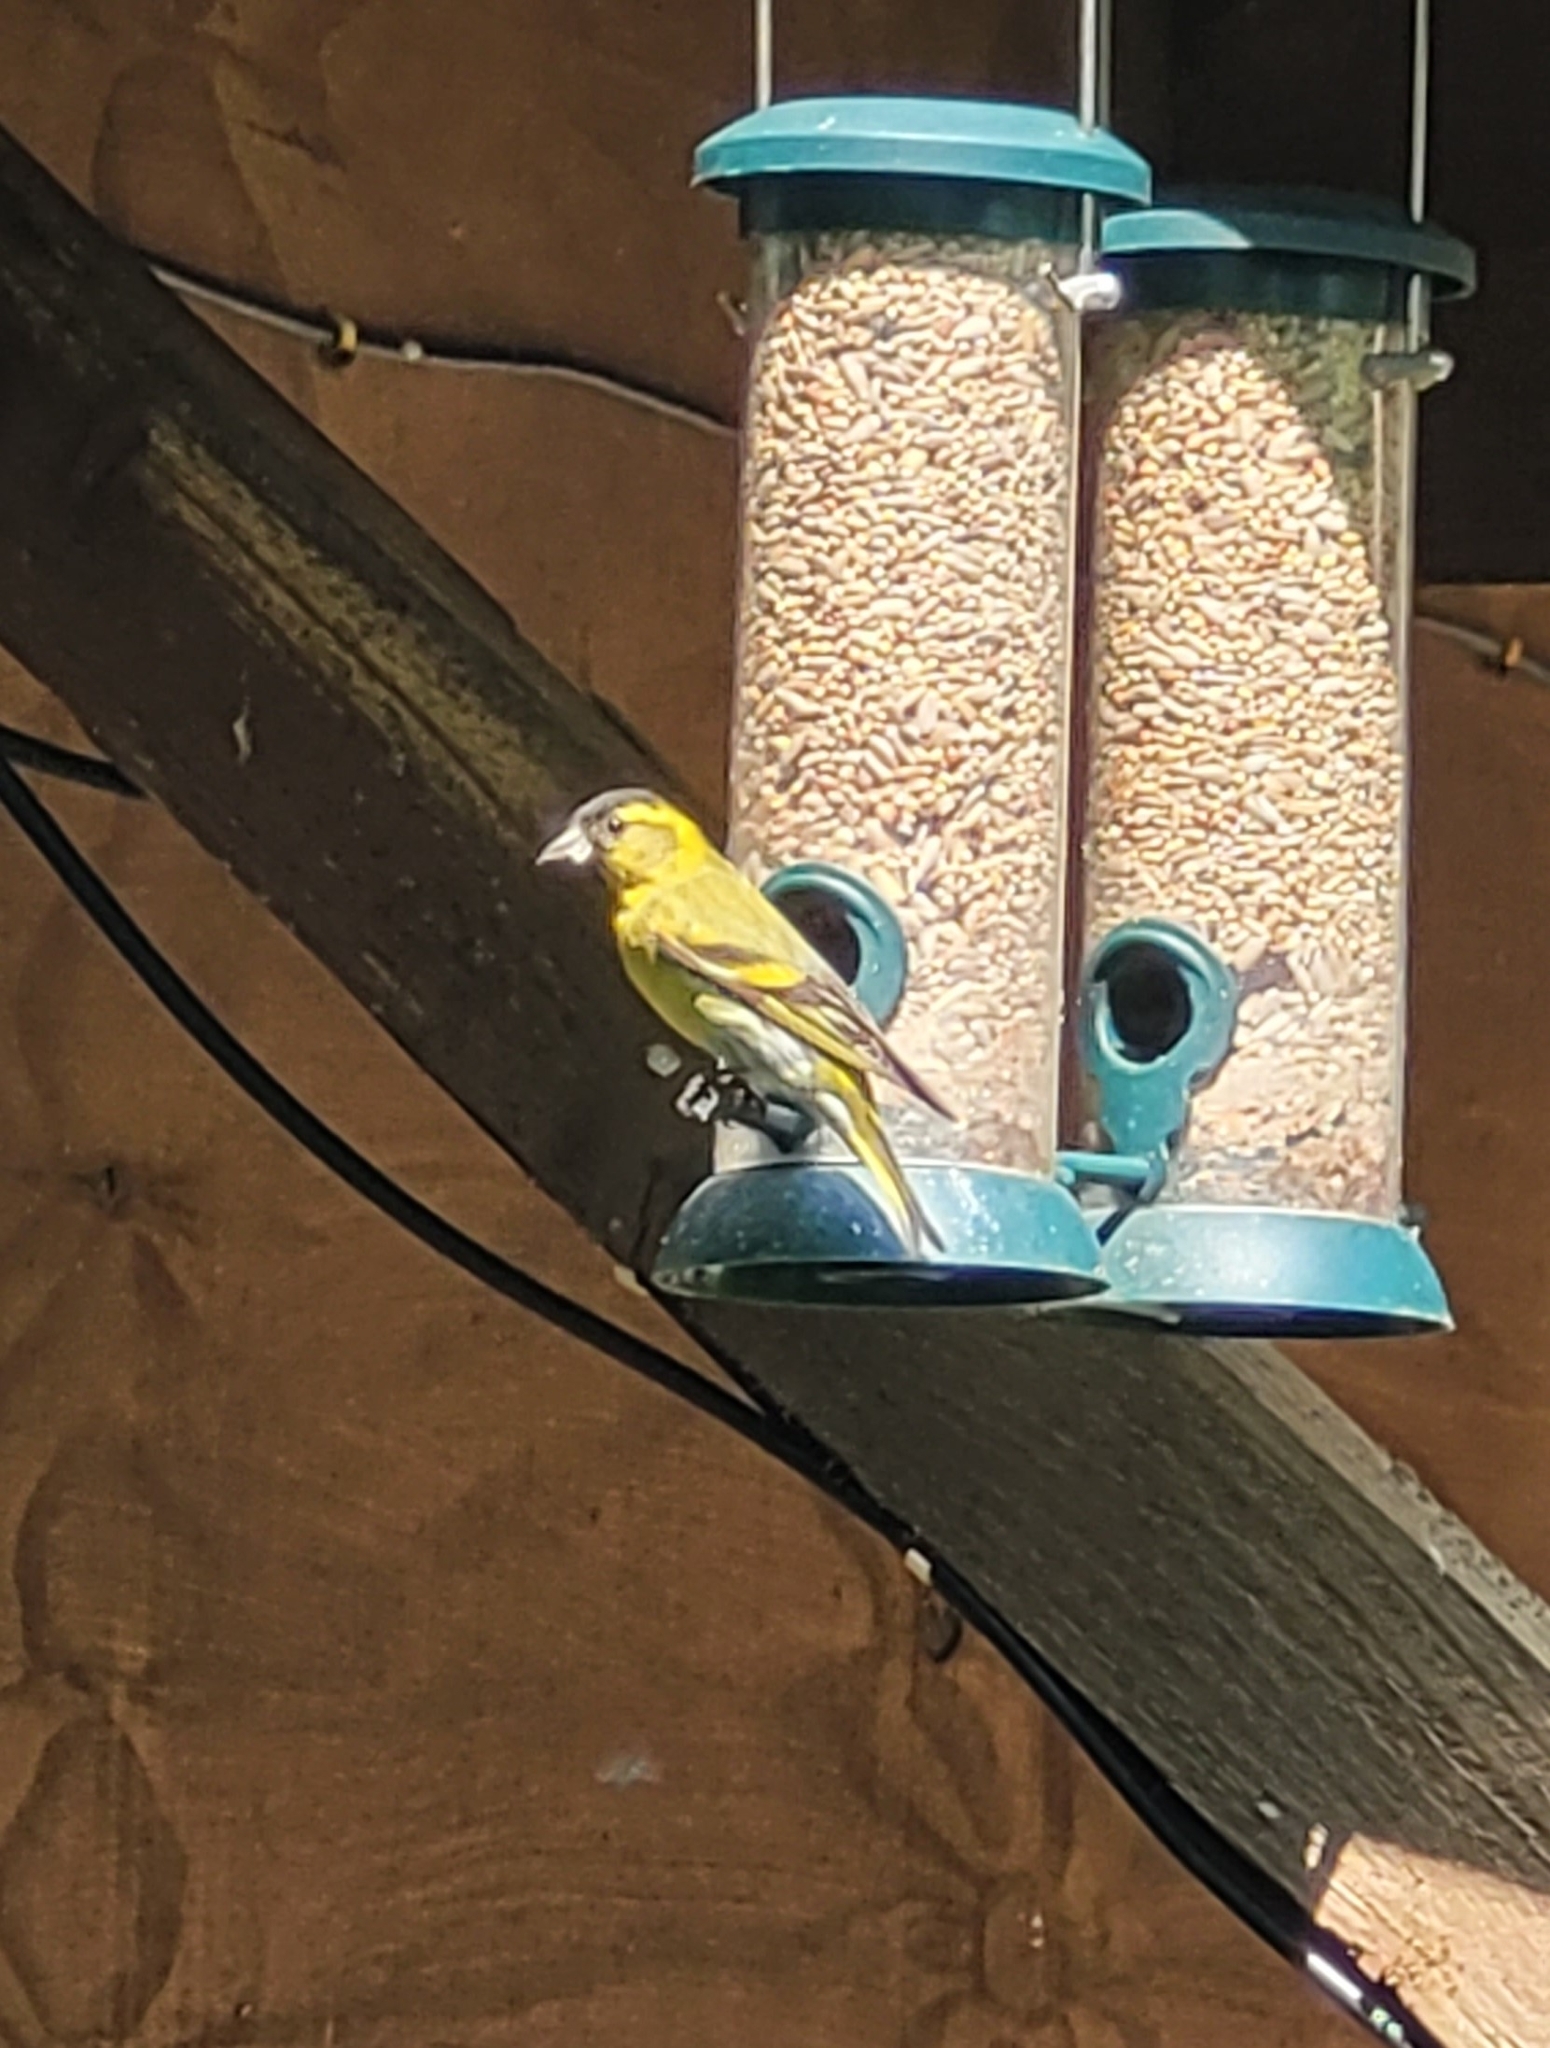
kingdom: Animalia
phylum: Chordata
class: Aves
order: Passeriformes
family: Fringillidae
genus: Spinus
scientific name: Spinus spinus
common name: Eurasian siskin
